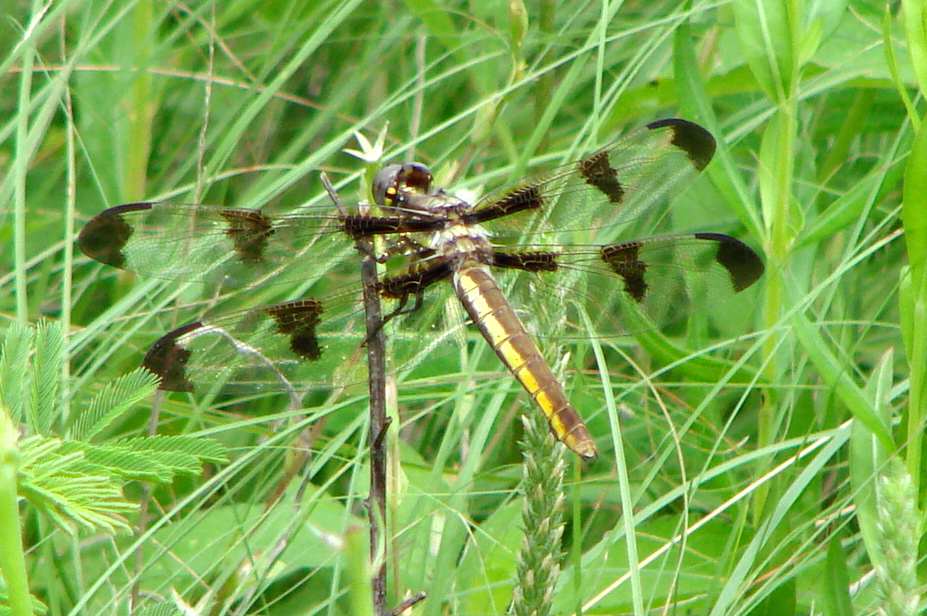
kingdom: Animalia
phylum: Arthropoda
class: Insecta
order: Odonata
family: Libellulidae
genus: Libellula
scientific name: Libellula pulchella
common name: Twelve-spotted skimmer
